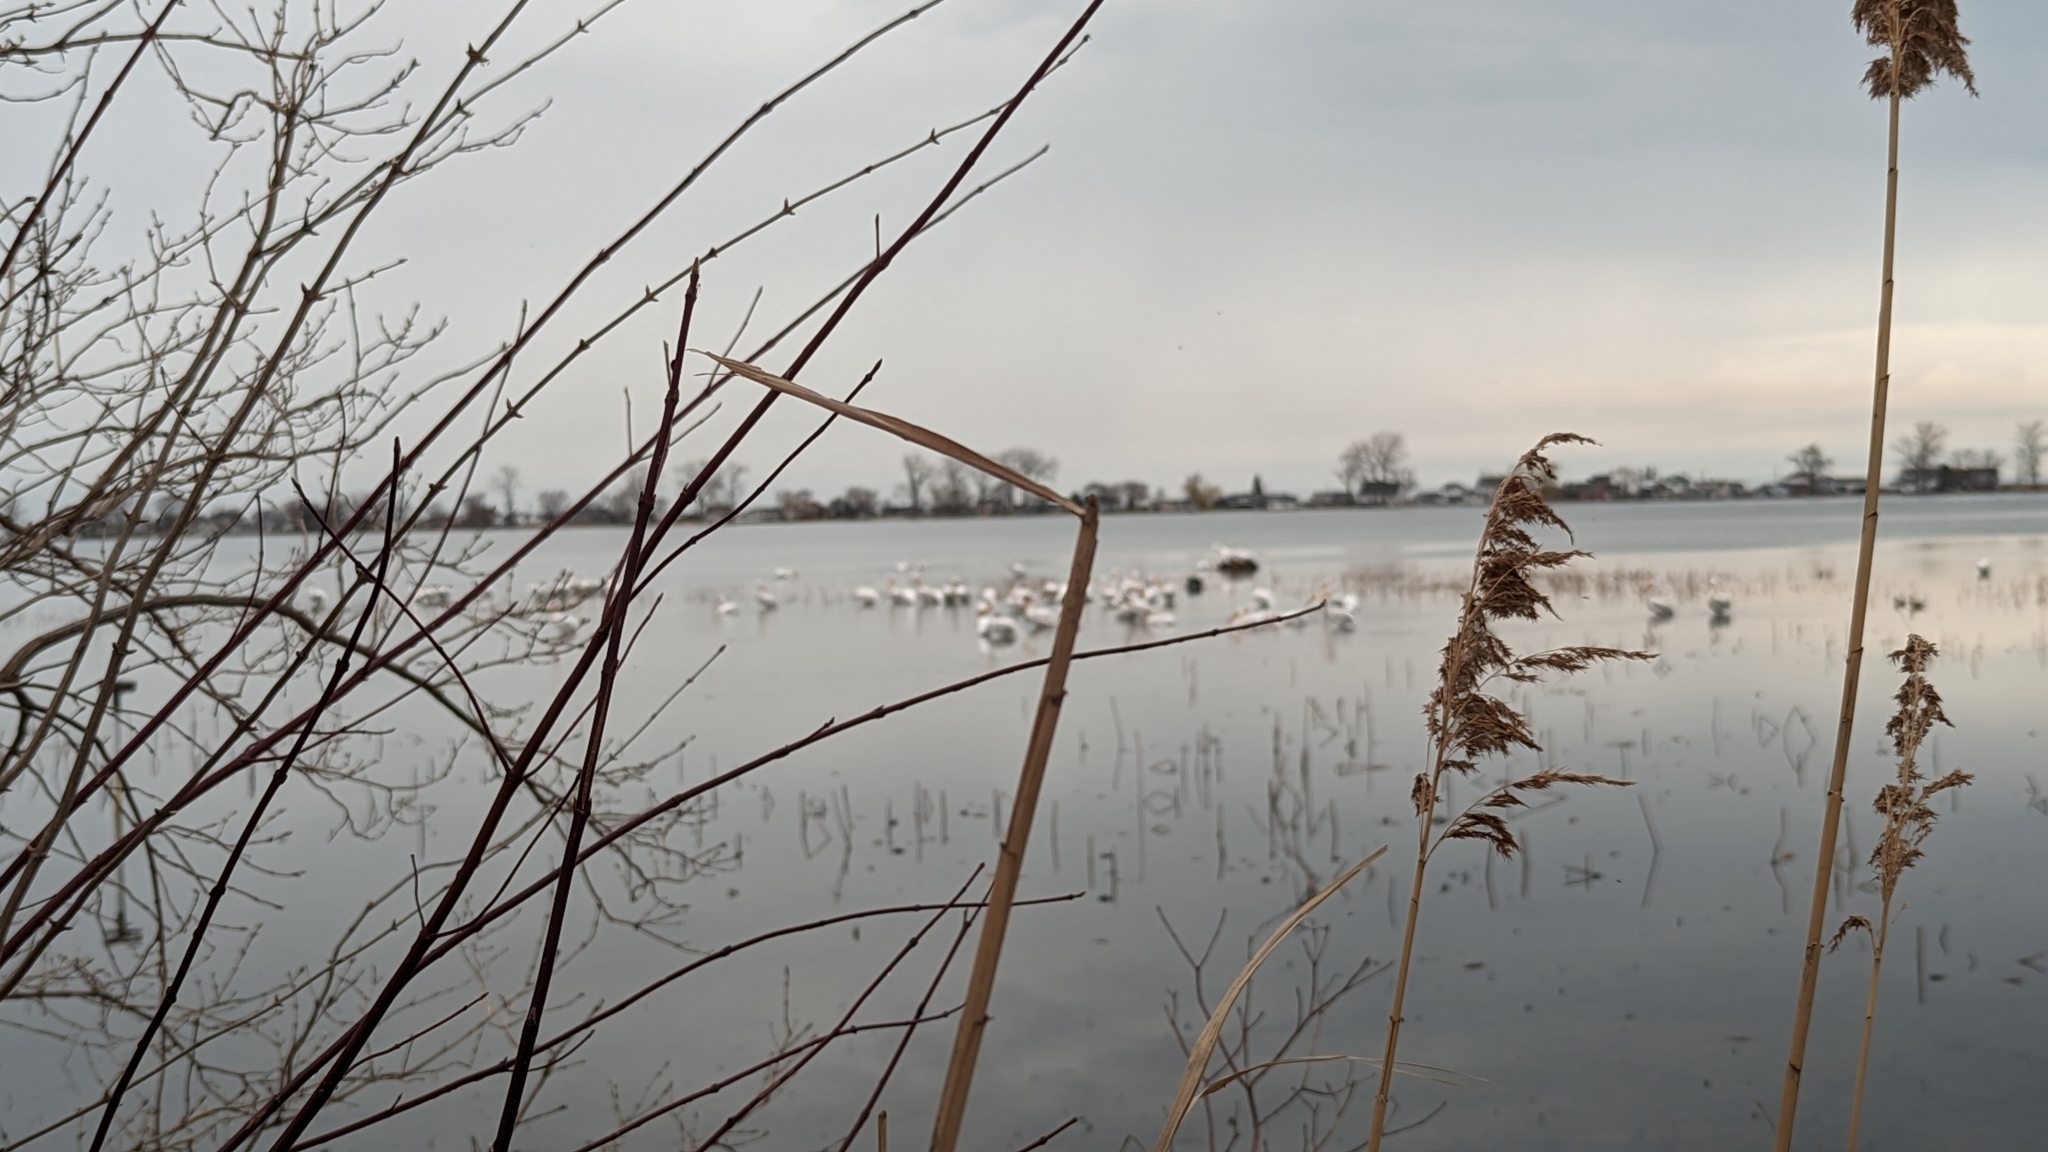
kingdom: Animalia
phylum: Chordata
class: Aves
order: Pelecaniformes
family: Pelecanidae
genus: Pelecanus
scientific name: Pelecanus erythrorhynchos
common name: American white pelican
